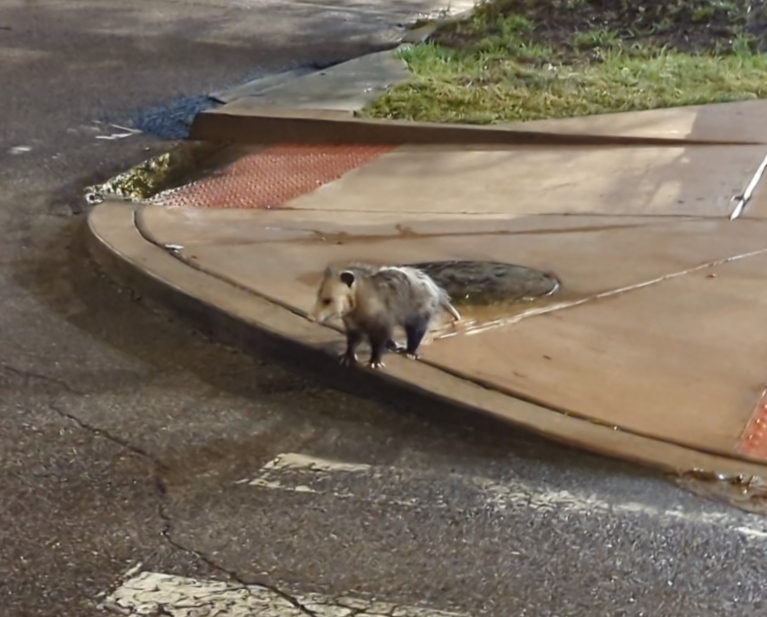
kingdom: Animalia
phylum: Chordata
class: Mammalia
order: Didelphimorphia
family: Didelphidae
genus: Didelphis
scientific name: Didelphis virginiana
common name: Virginia opossum
